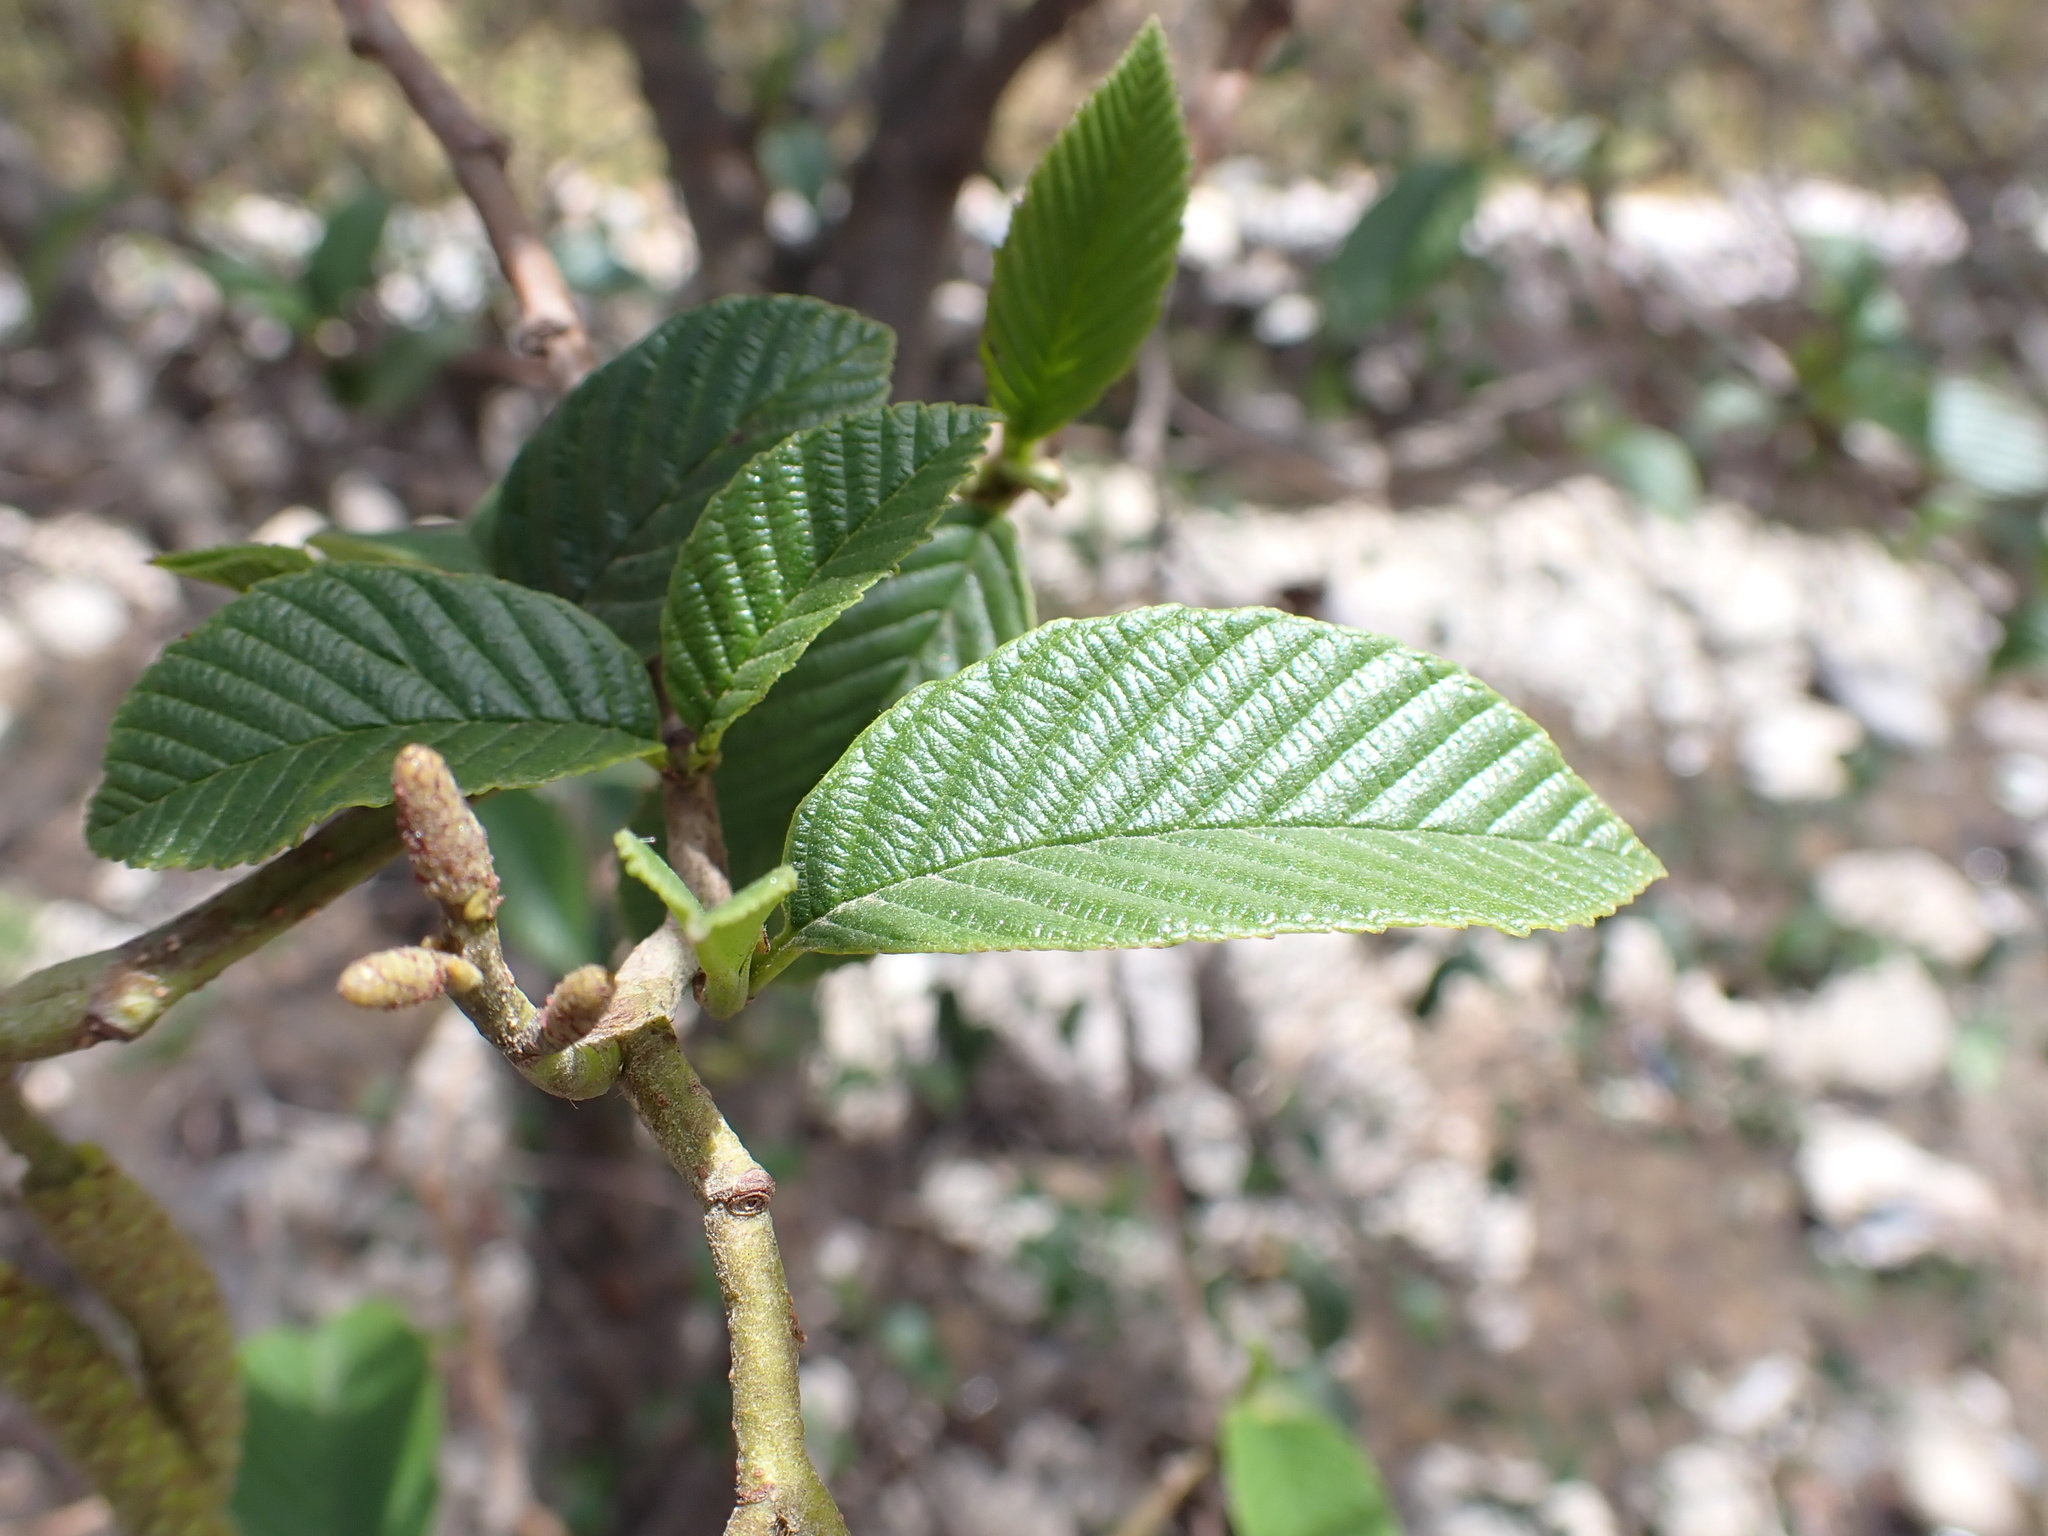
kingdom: Plantae
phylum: Tracheophyta
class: Magnoliopsida
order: Fagales
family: Betulaceae
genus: Alnus
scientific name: Alnus acuminata
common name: Alder
